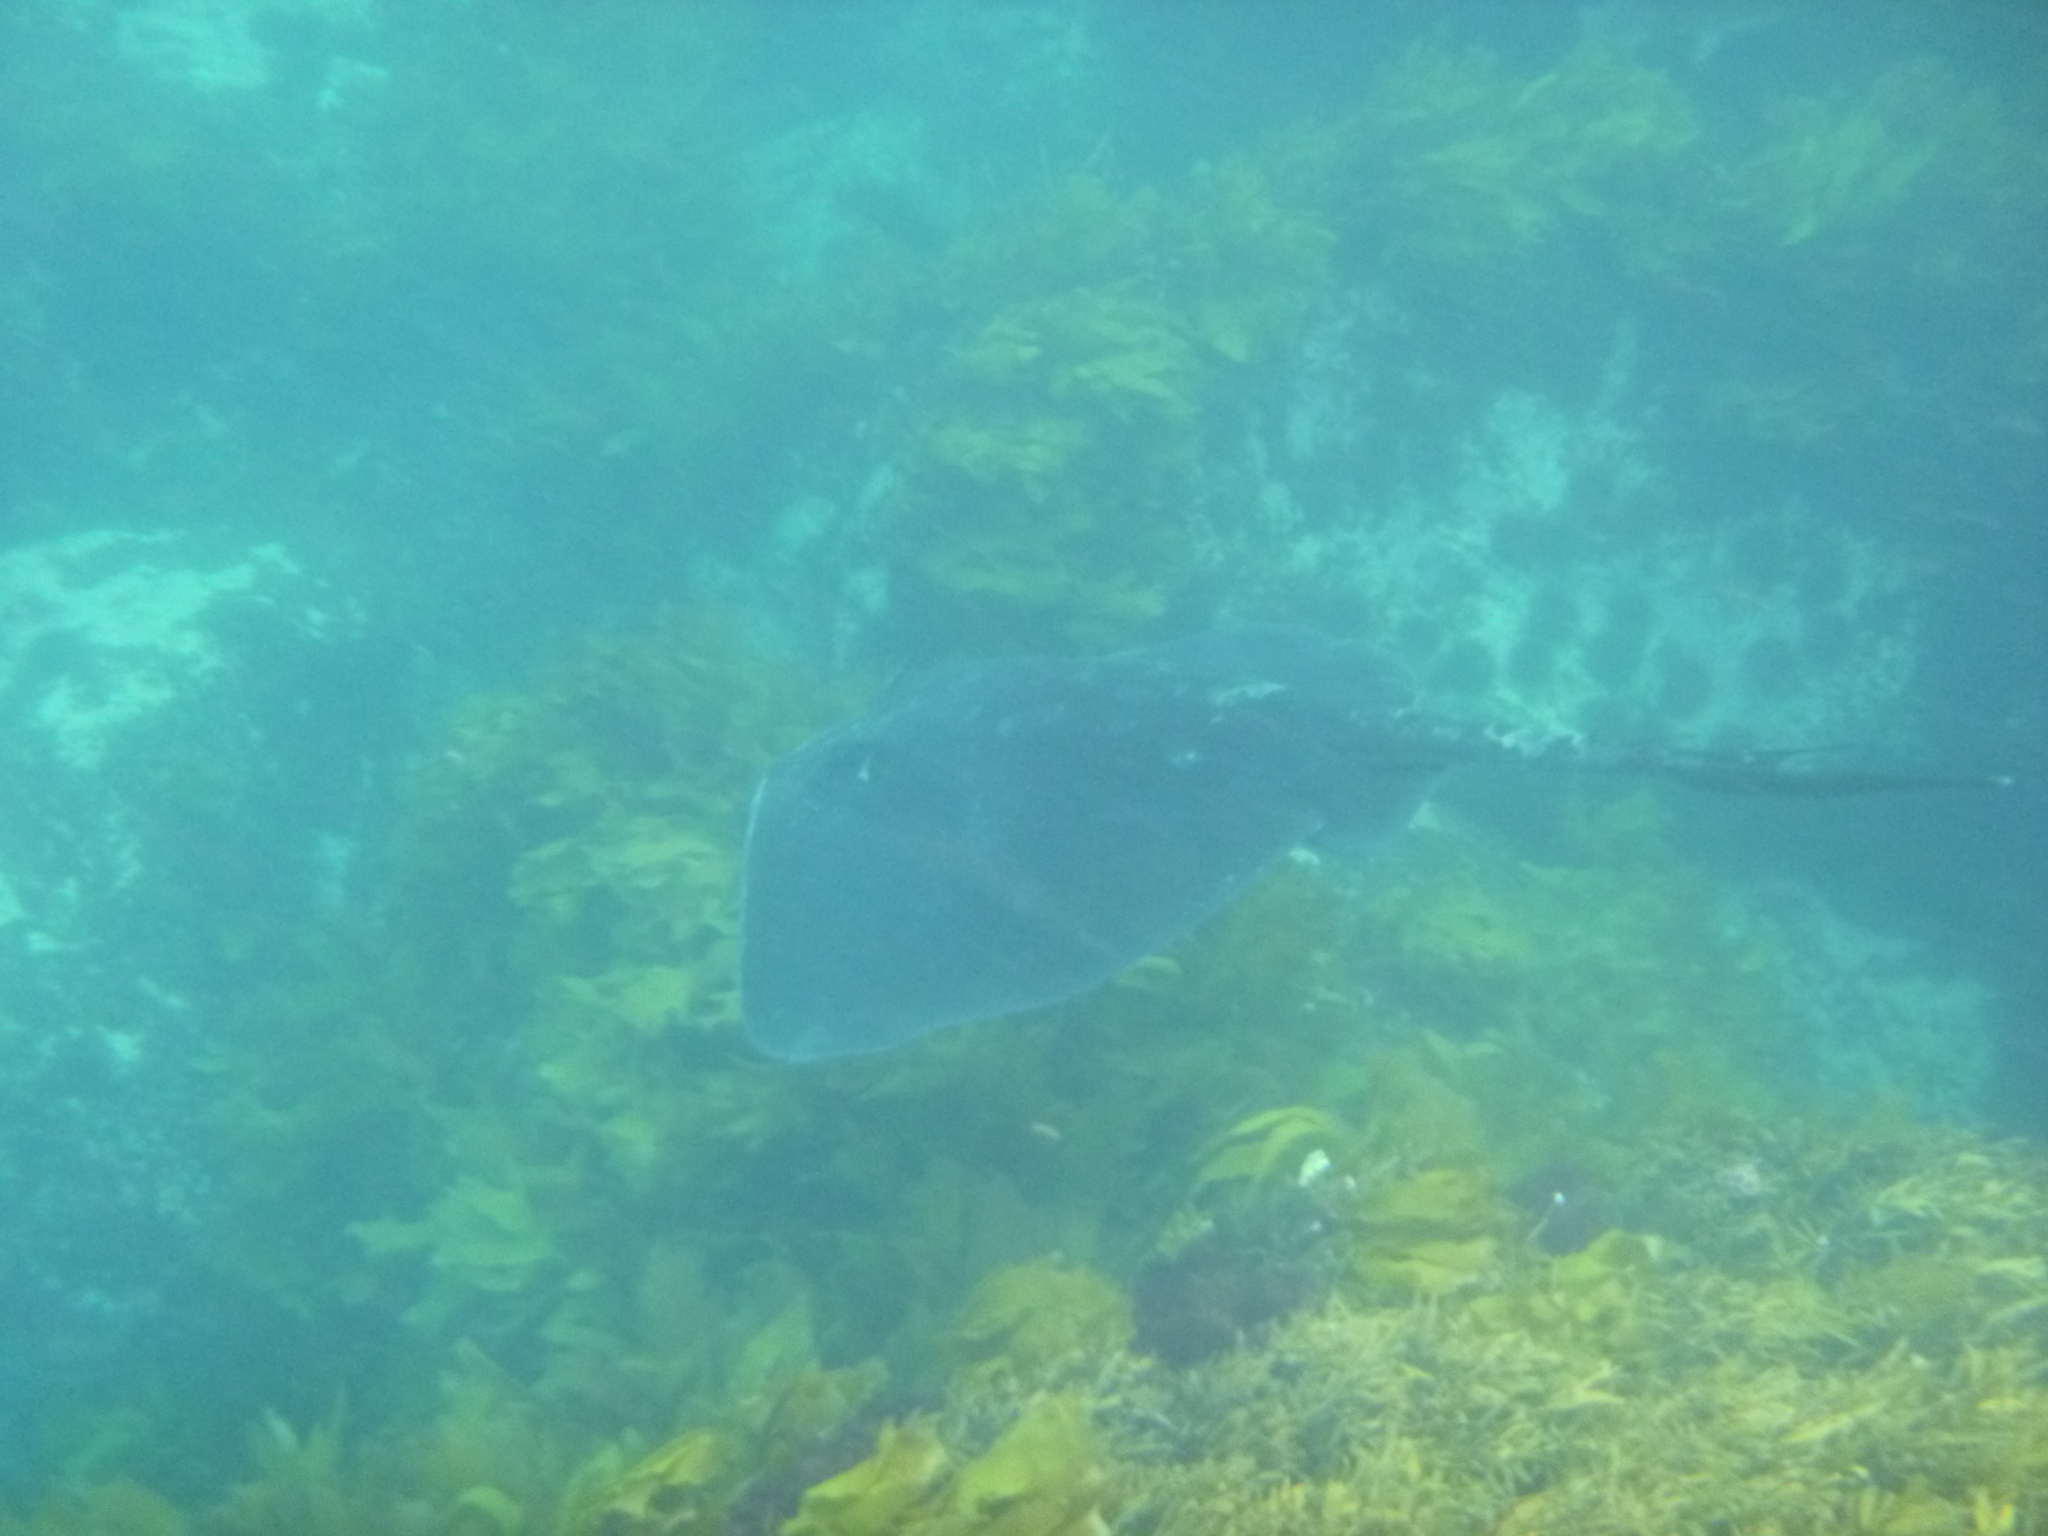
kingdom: Animalia
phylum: Chordata
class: Elasmobranchii
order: Myliobatiformes
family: Dasyatidae
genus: Bathytoshia
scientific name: Bathytoshia brevicaudata
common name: Short-tail stingray
